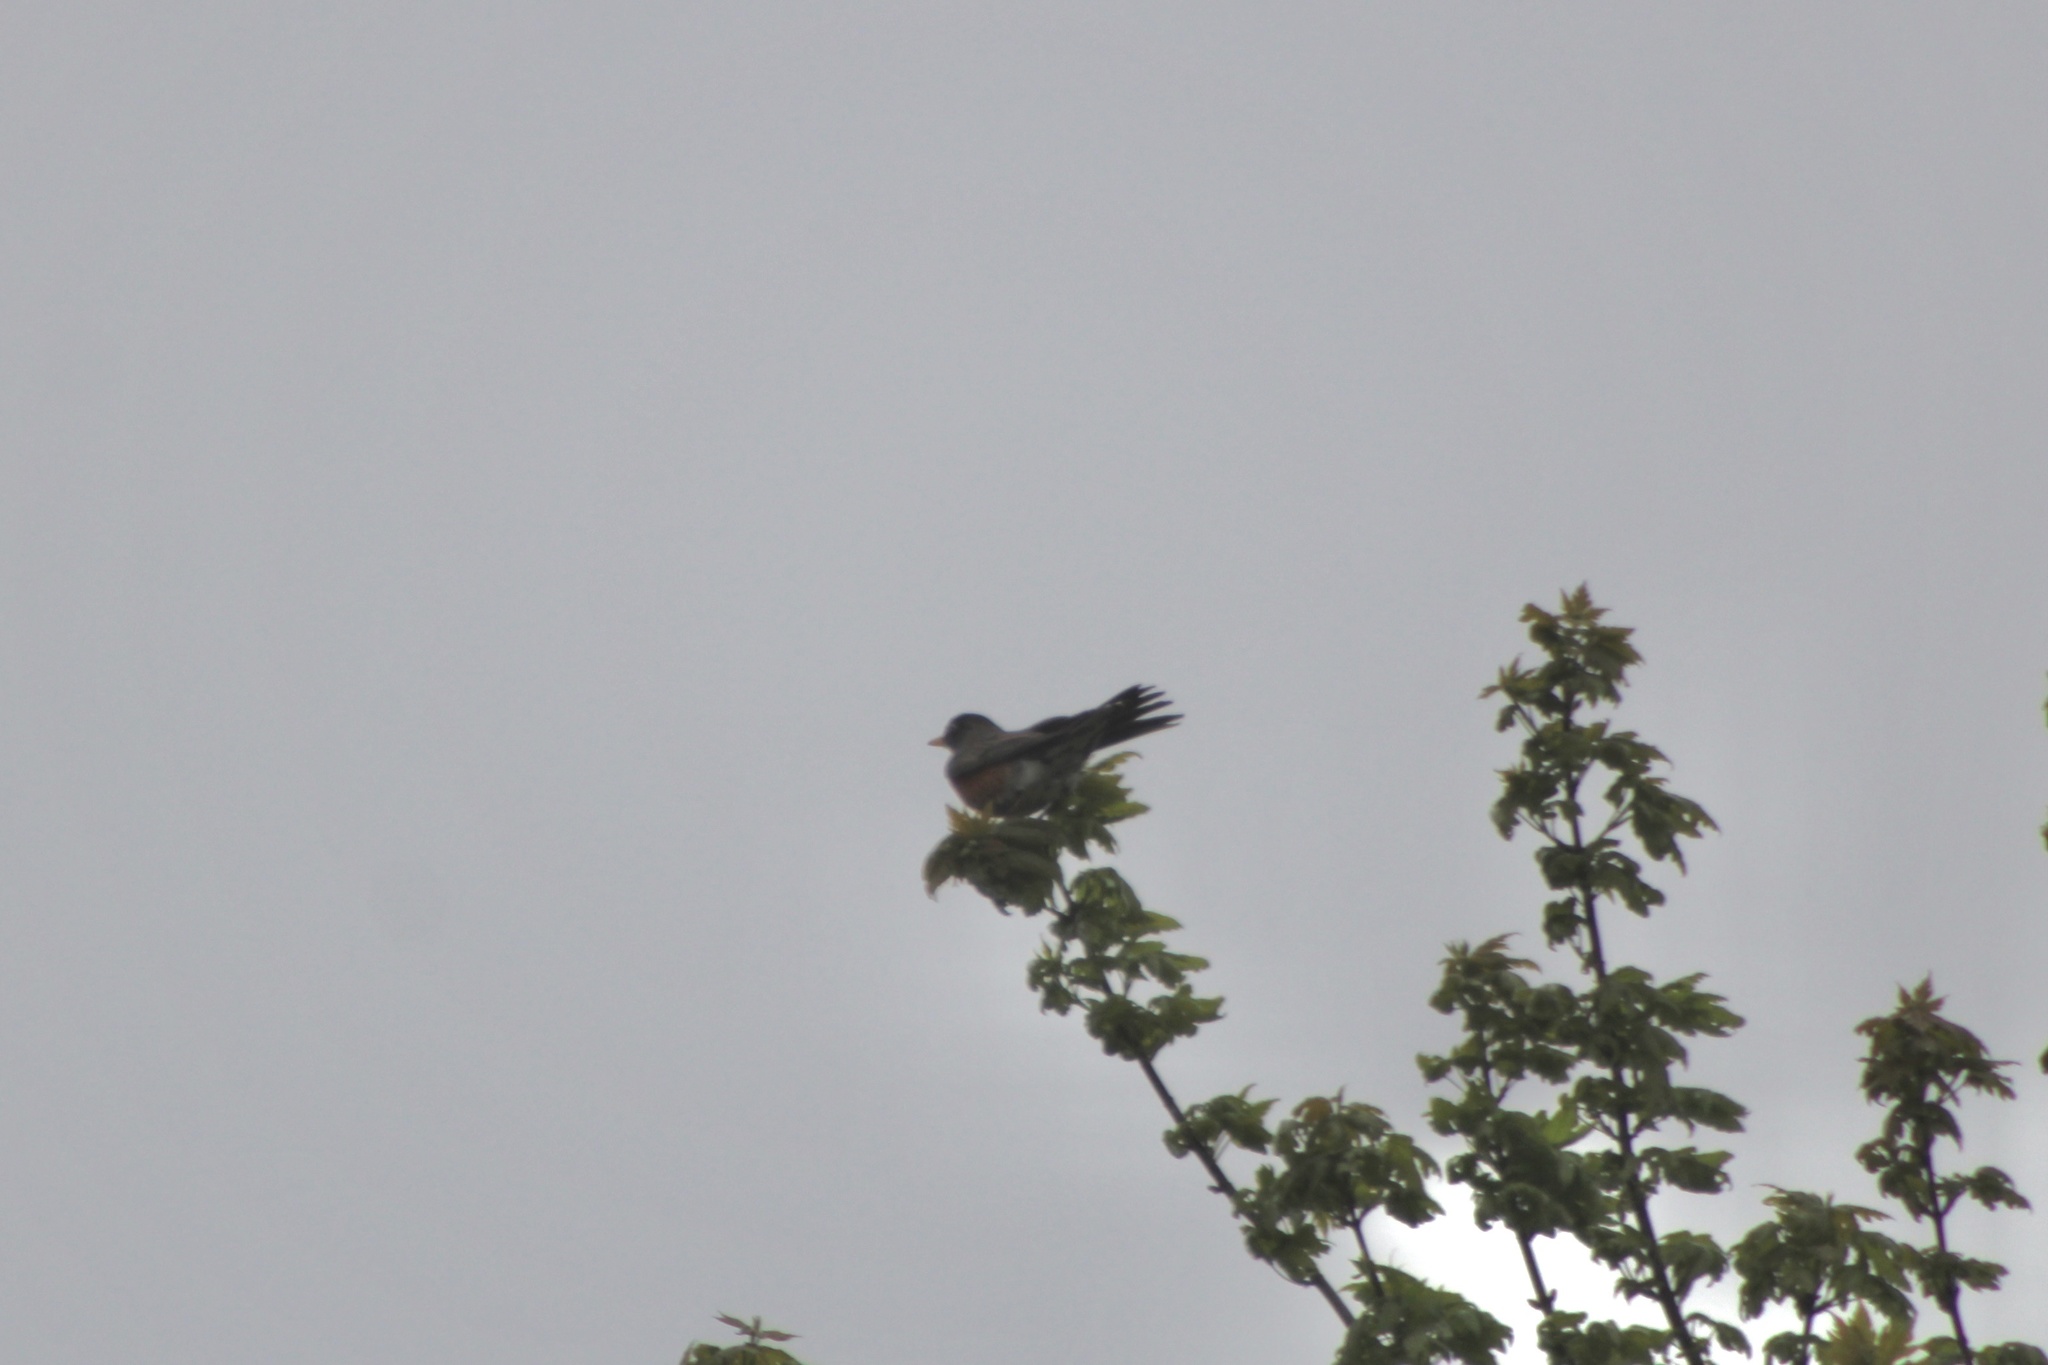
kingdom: Animalia
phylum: Chordata
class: Aves
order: Passeriformes
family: Turdidae
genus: Turdus
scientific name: Turdus migratorius
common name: American robin
